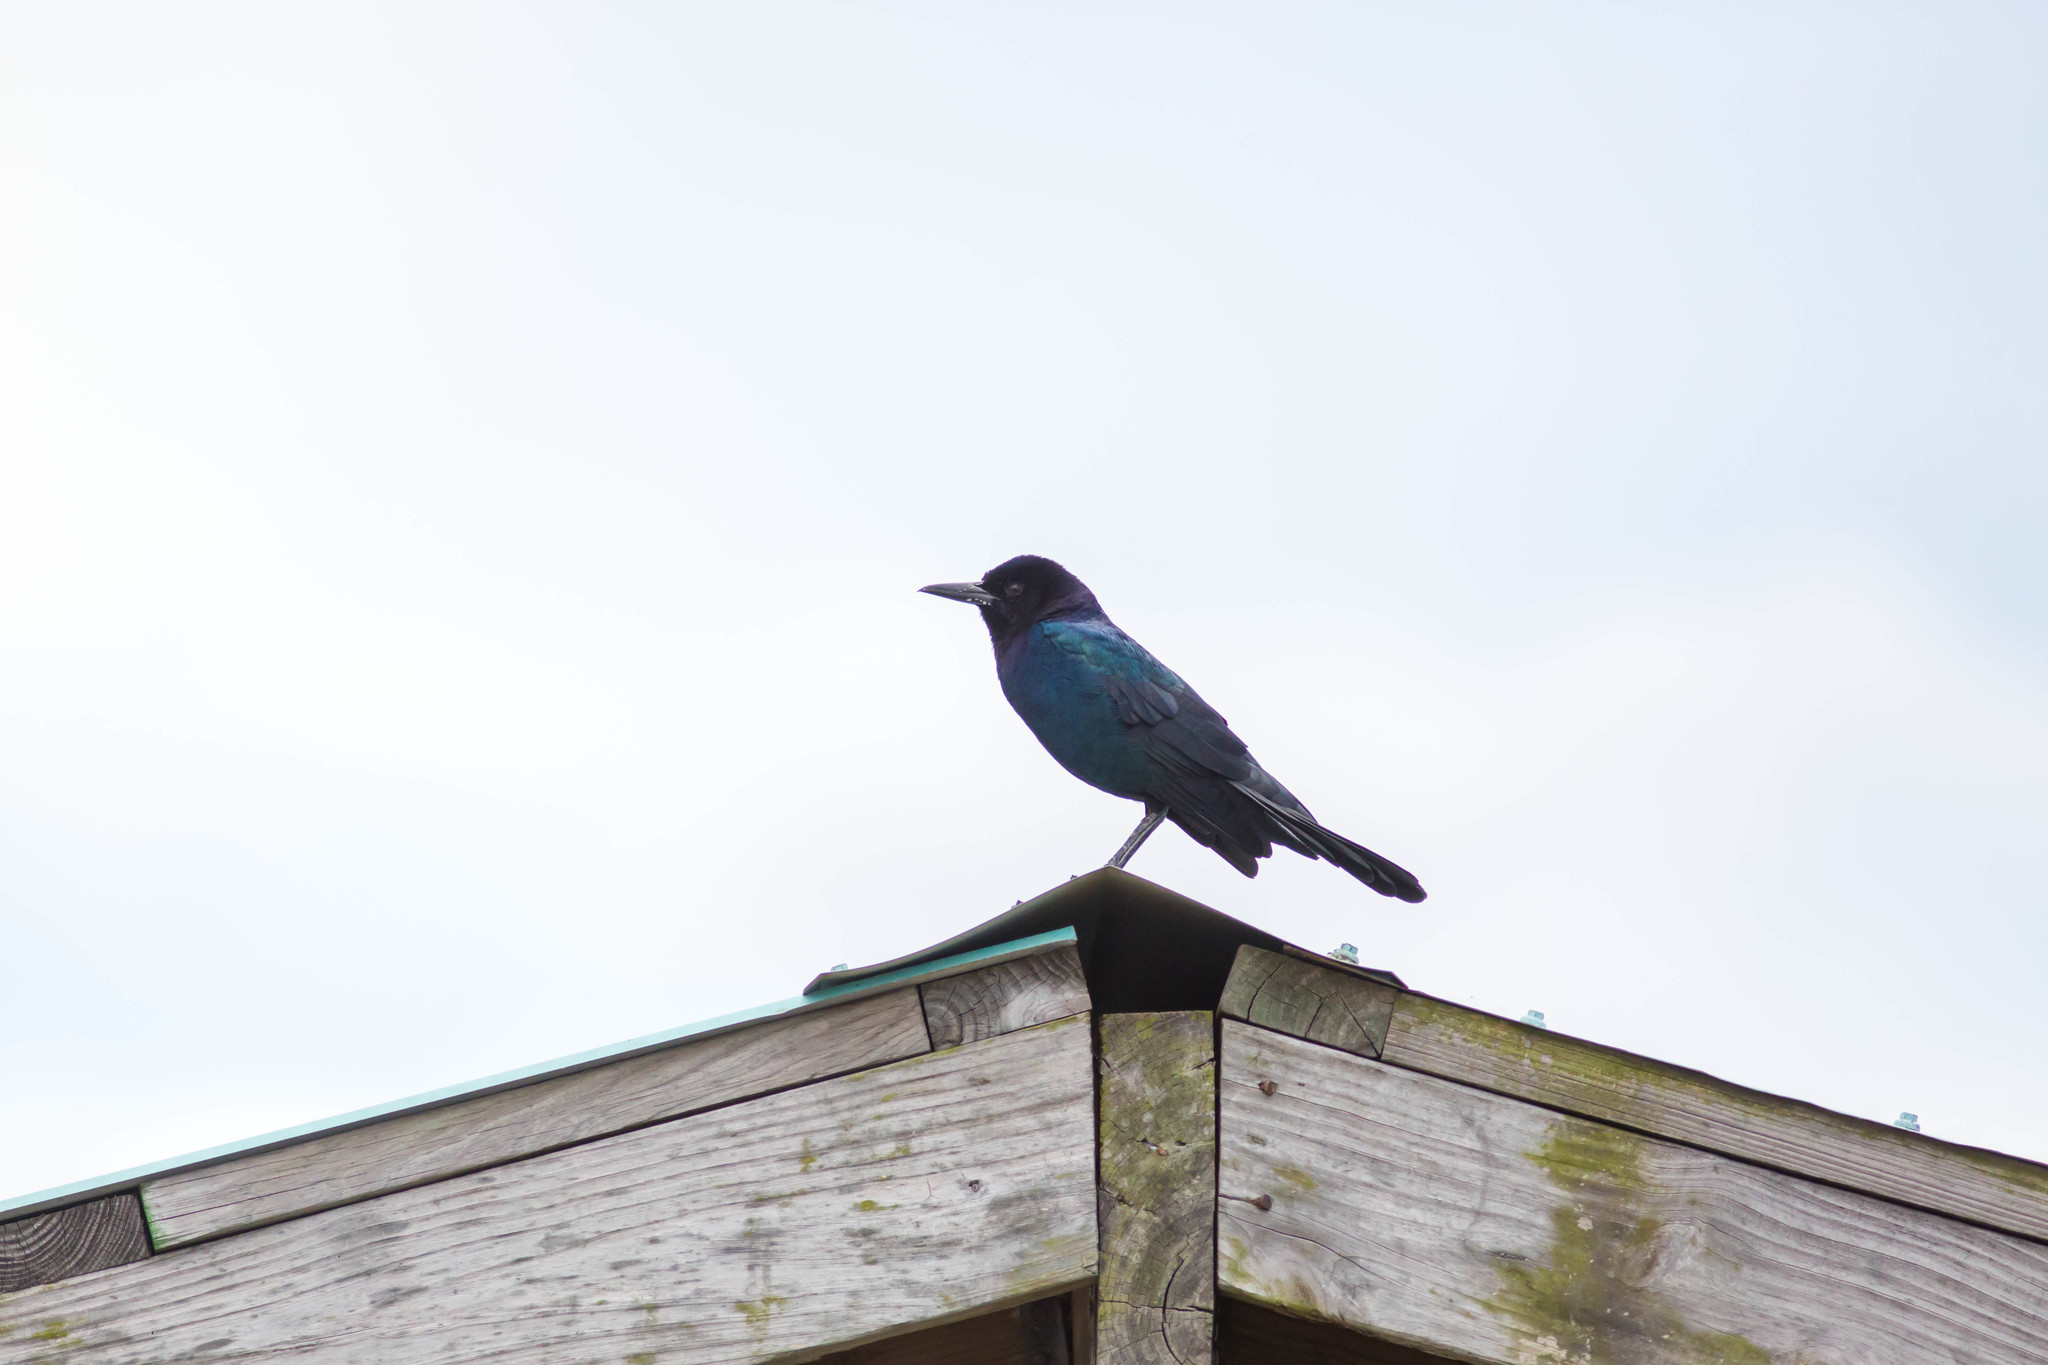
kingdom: Animalia
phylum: Chordata
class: Aves
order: Passeriformes
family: Icteridae
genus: Quiscalus
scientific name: Quiscalus major
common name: Boat-tailed grackle
